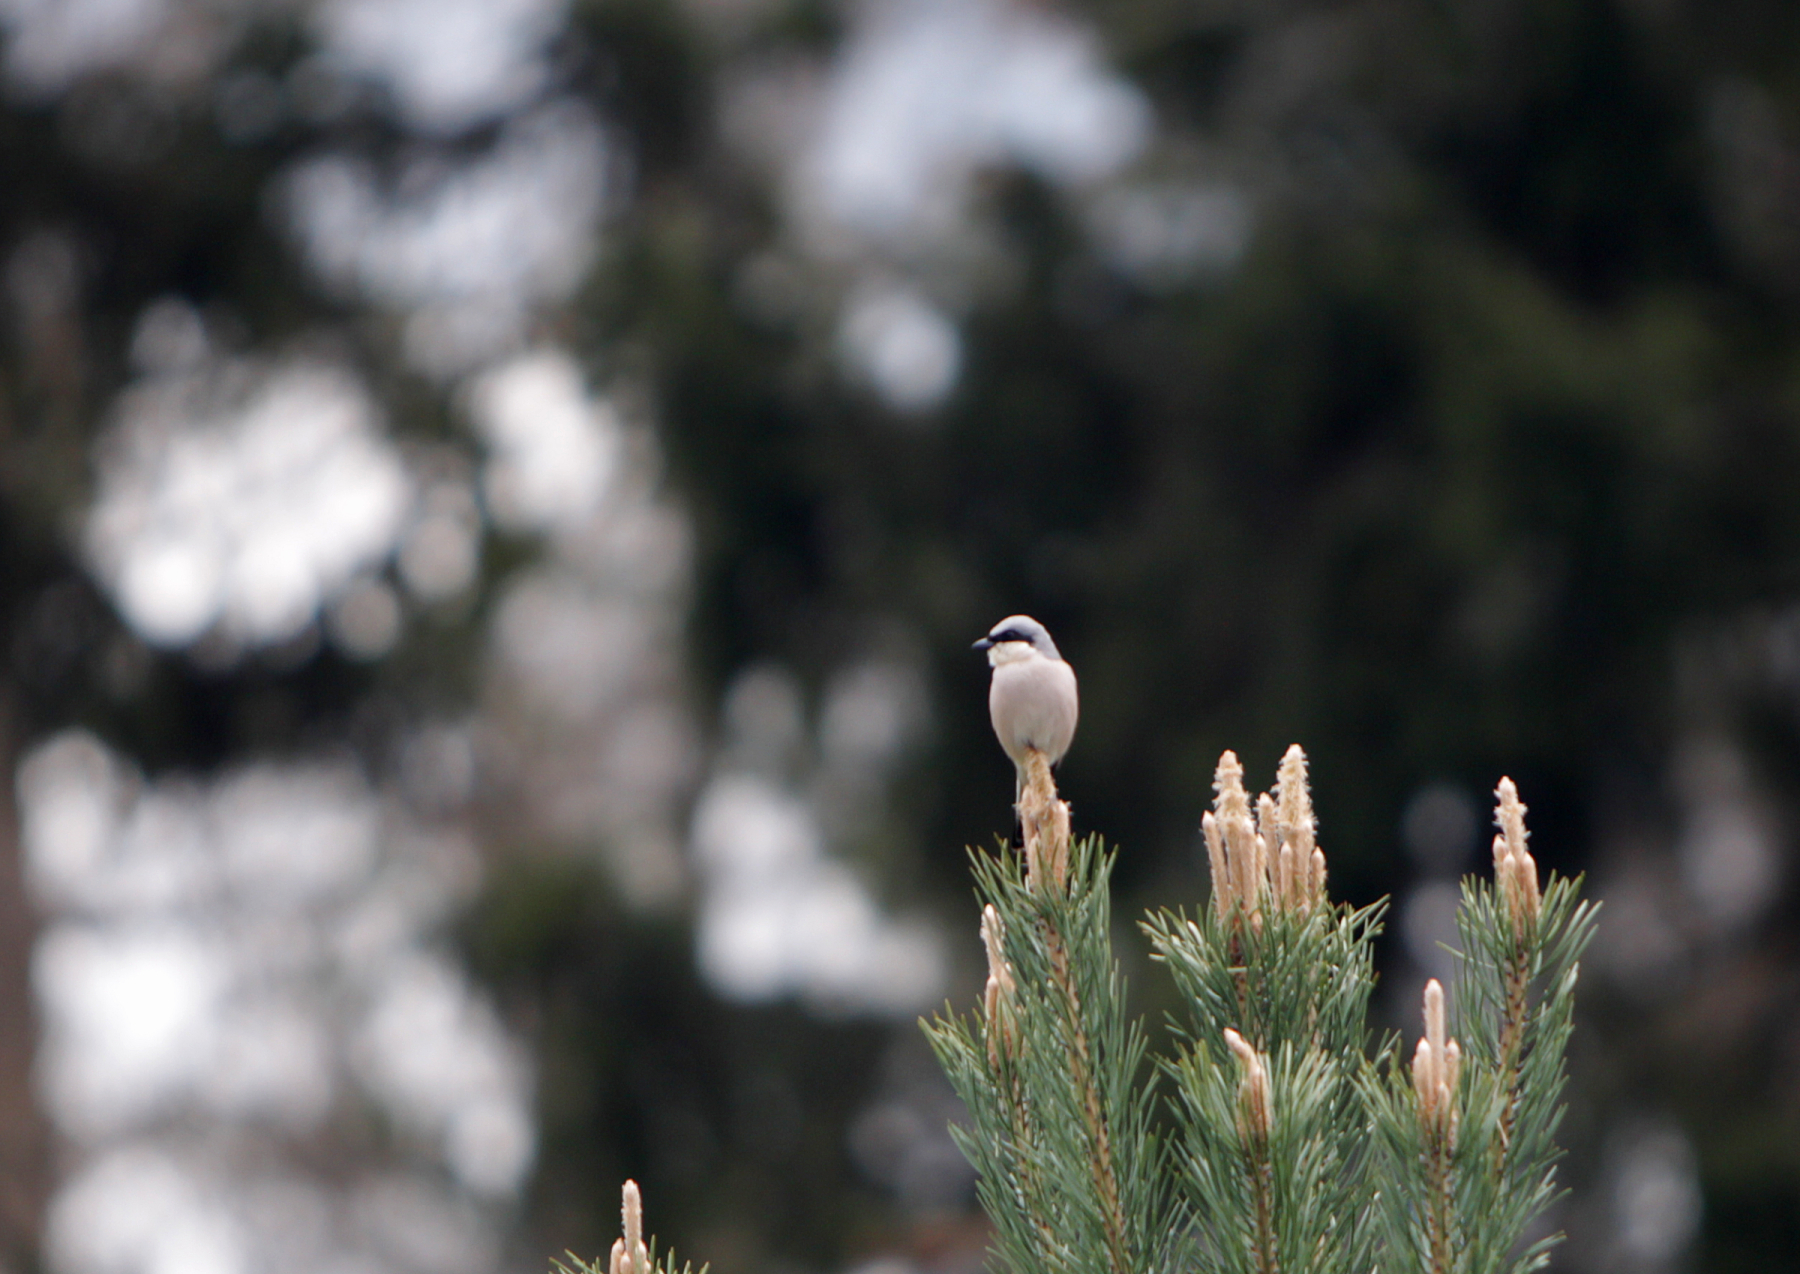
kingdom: Animalia
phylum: Chordata
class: Aves
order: Passeriformes
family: Laniidae
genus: Lanius
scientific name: Lanius collurio
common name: Red-backed shrike
